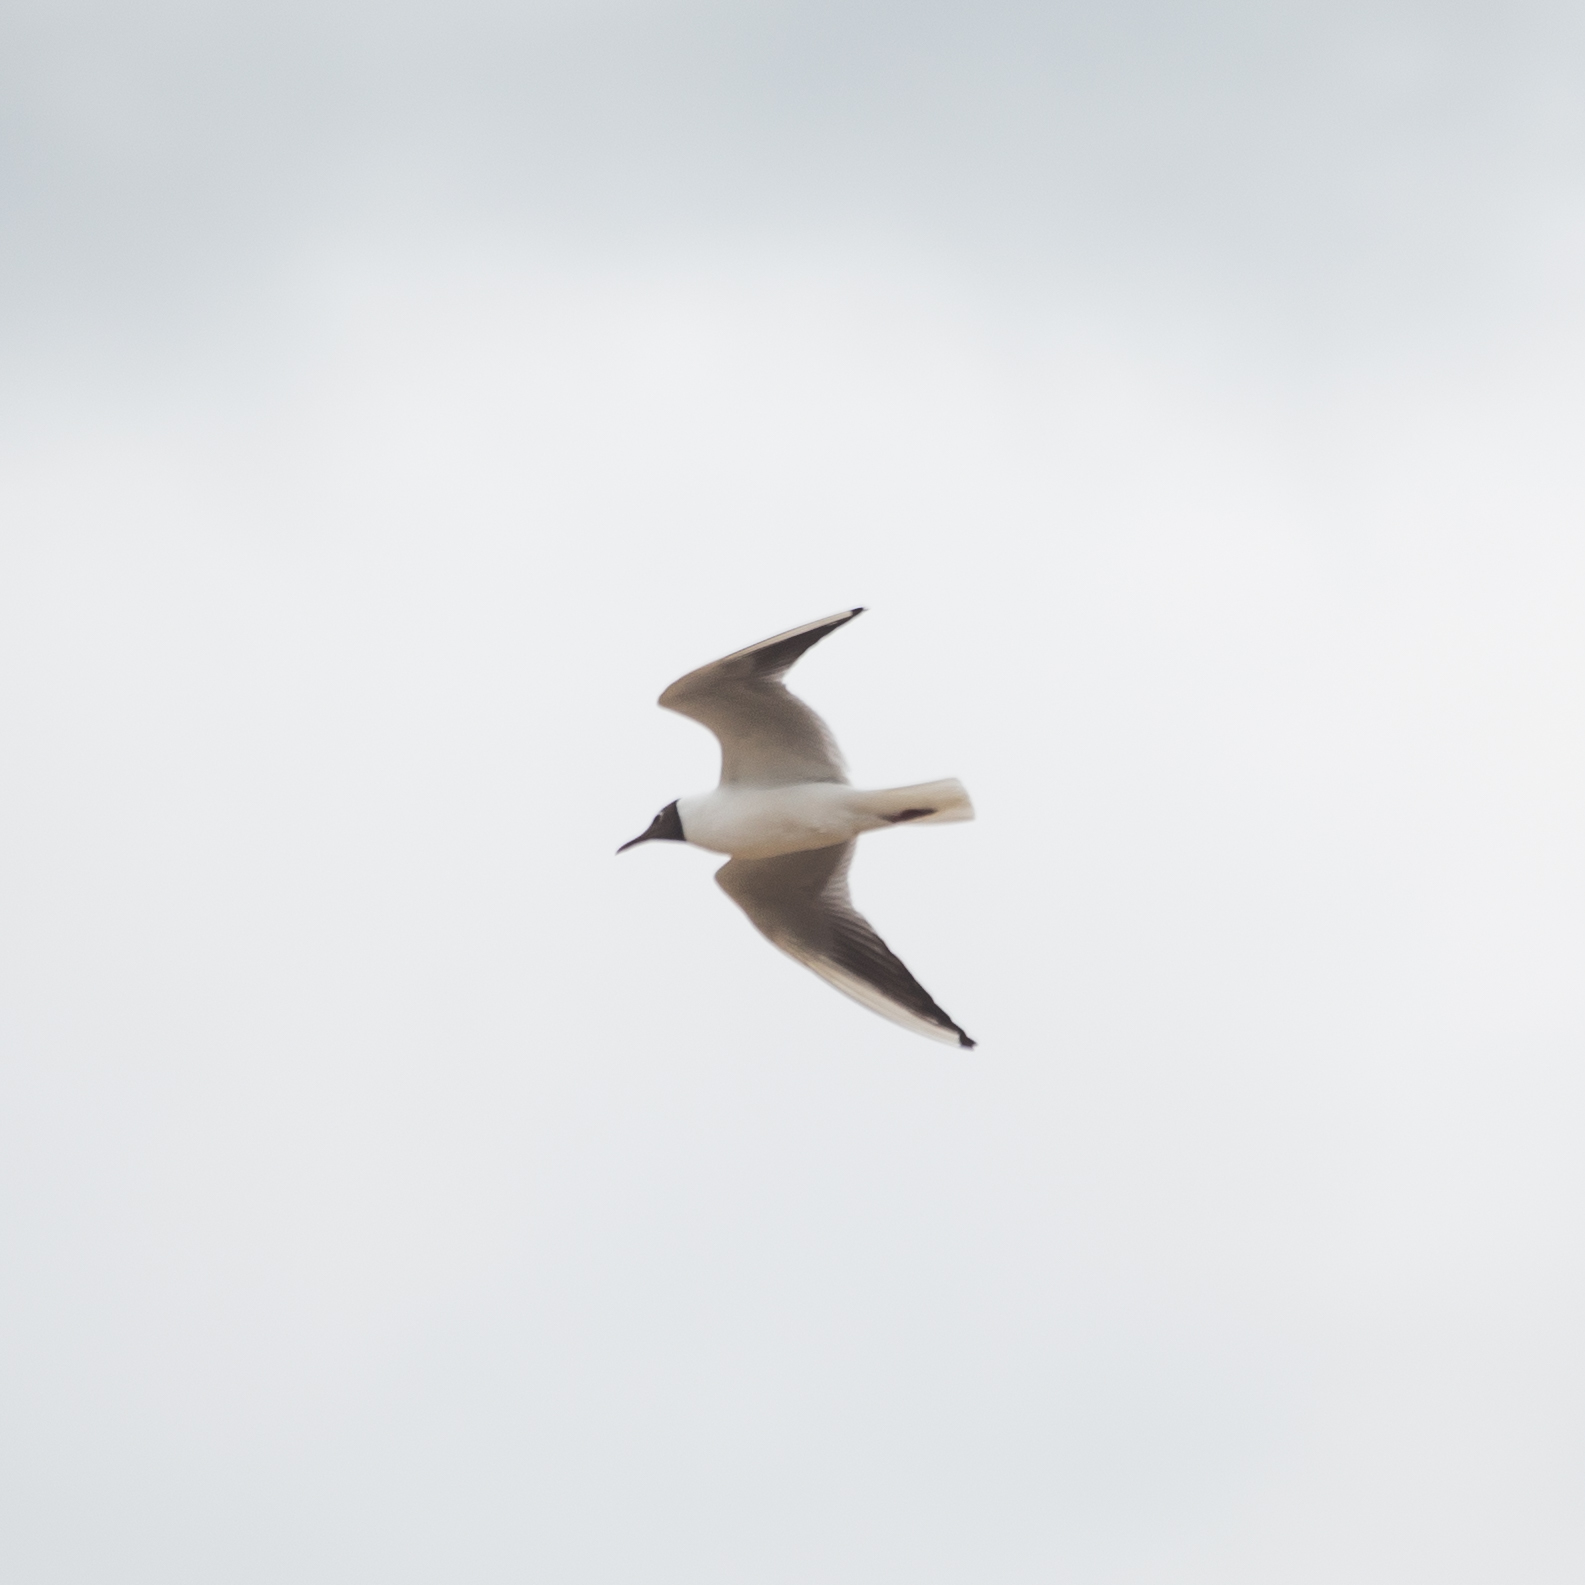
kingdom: Animalia
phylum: Chordata
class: Aves
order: Charadriiformes
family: Laridae
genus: Chroicocephalus
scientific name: Chroicocephalus ridibundus
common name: Black-headed gull
